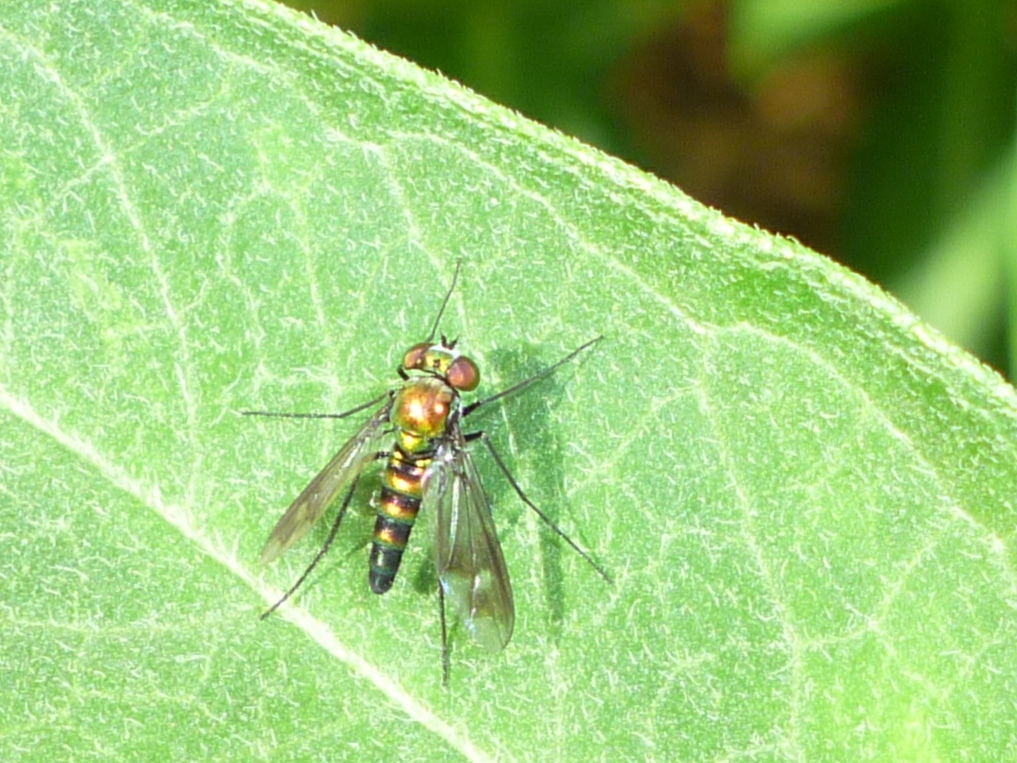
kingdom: Animalia
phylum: Arthropoda
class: Insecta
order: Diptera
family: Dolichopodidae
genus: Condylostylus
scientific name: Condylostylus patibulatus
